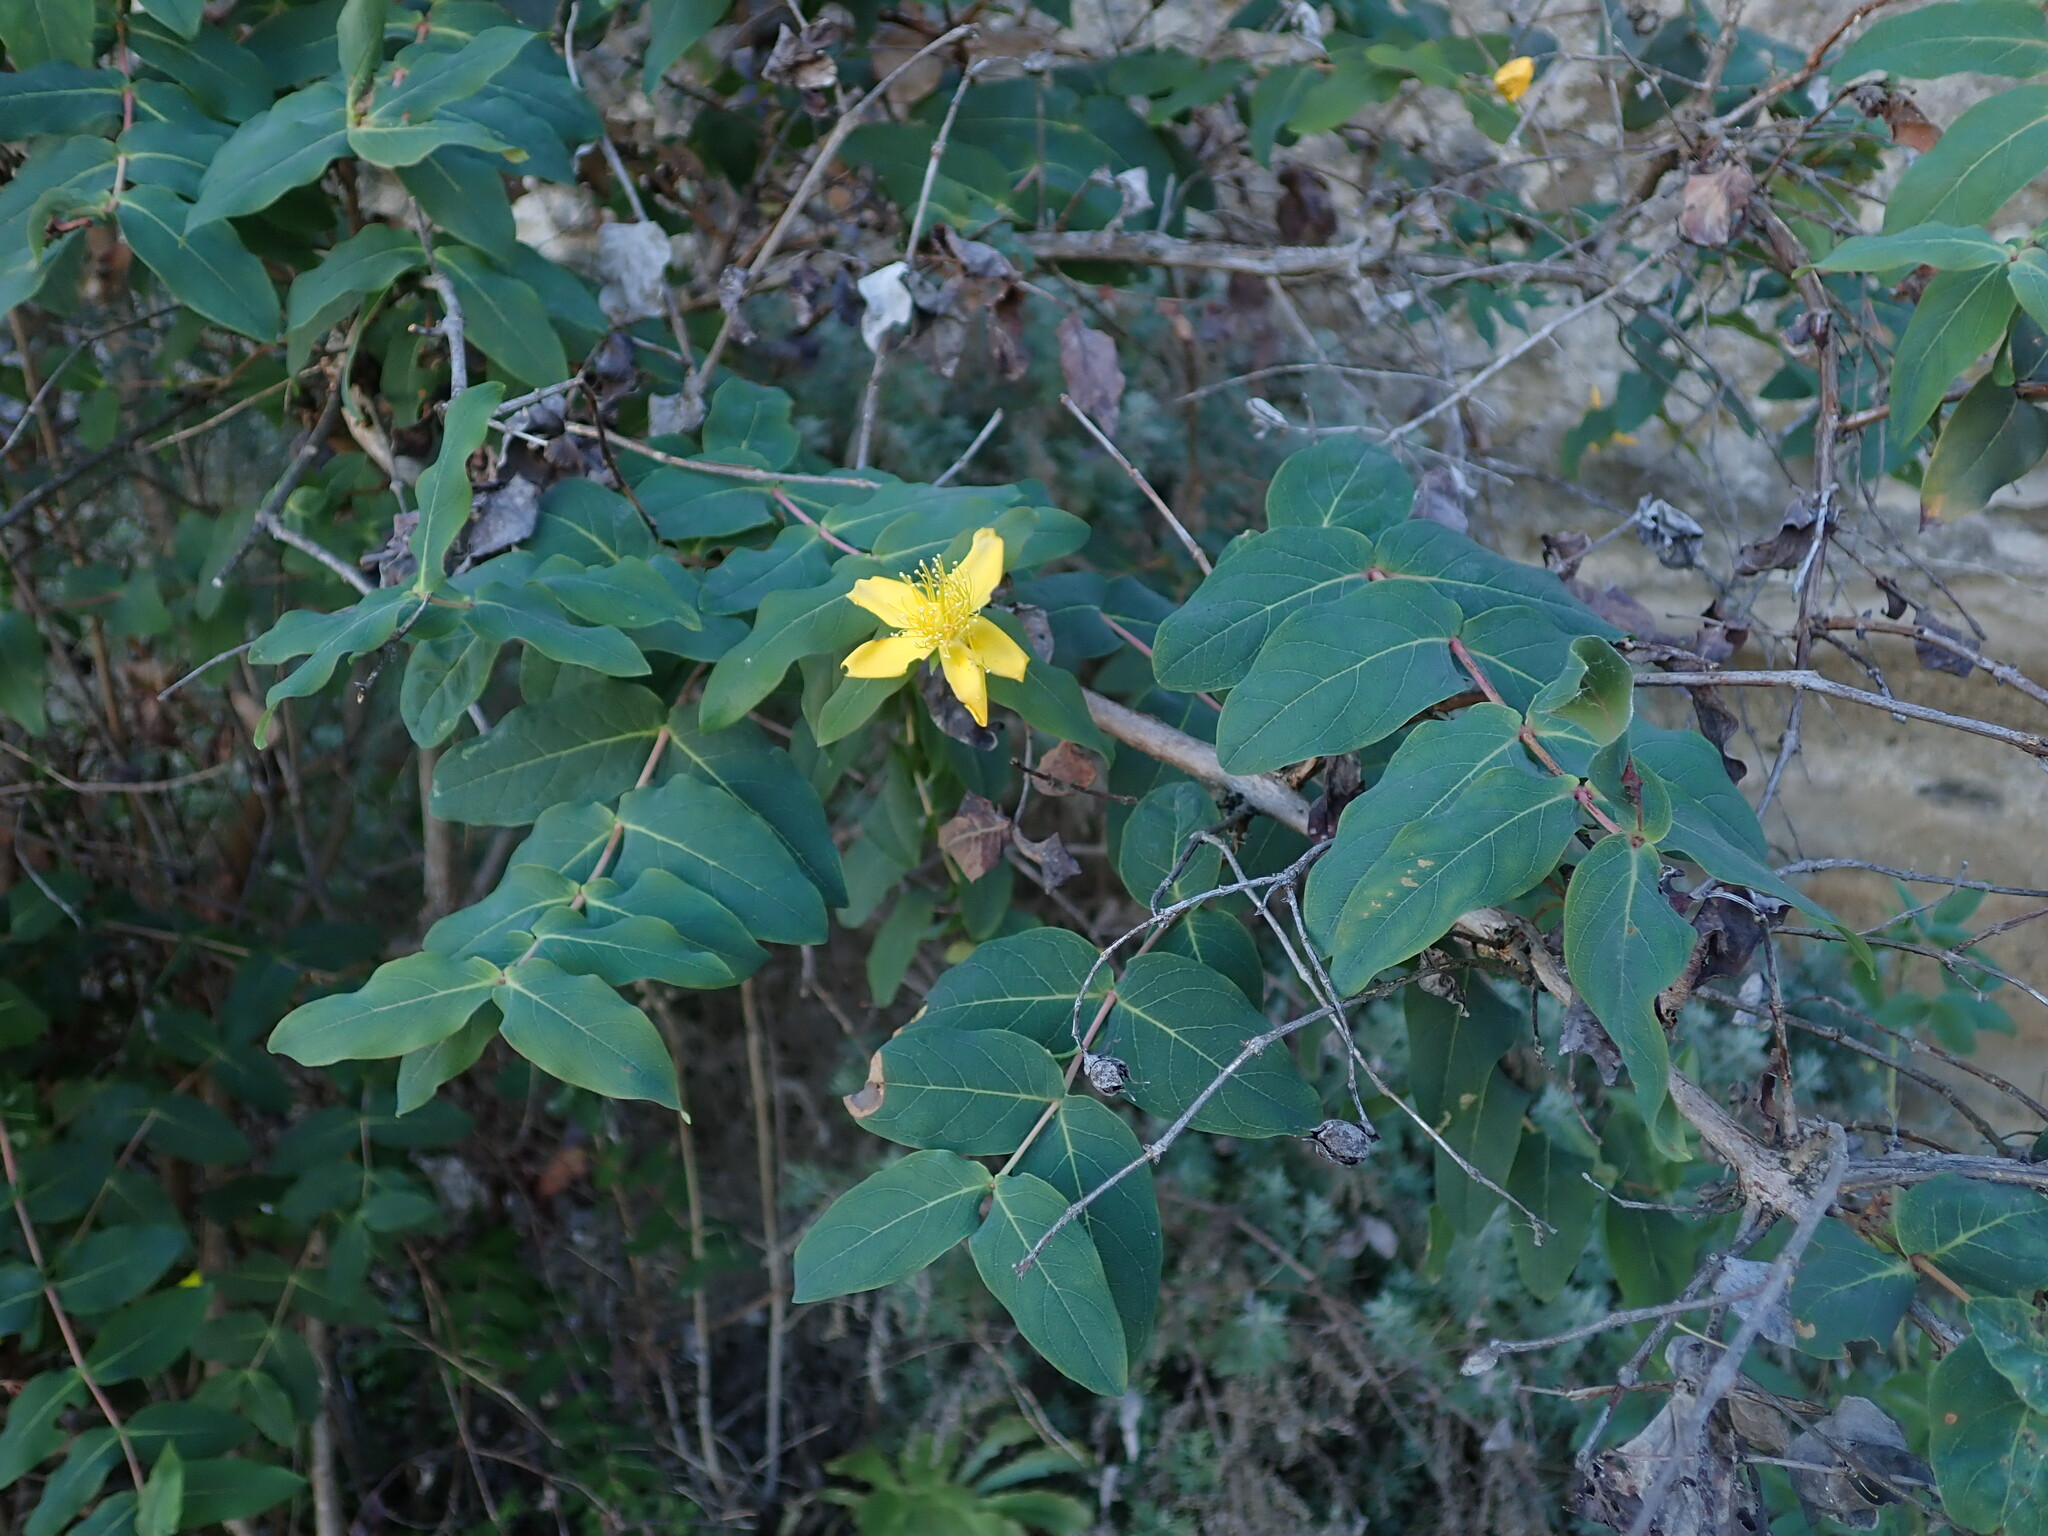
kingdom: Plantae
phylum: Tracheophyta
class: Magnoliopsida
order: Malpighiales
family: Hypericaceae
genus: Hypericum
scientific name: Hypericum grandifolium
